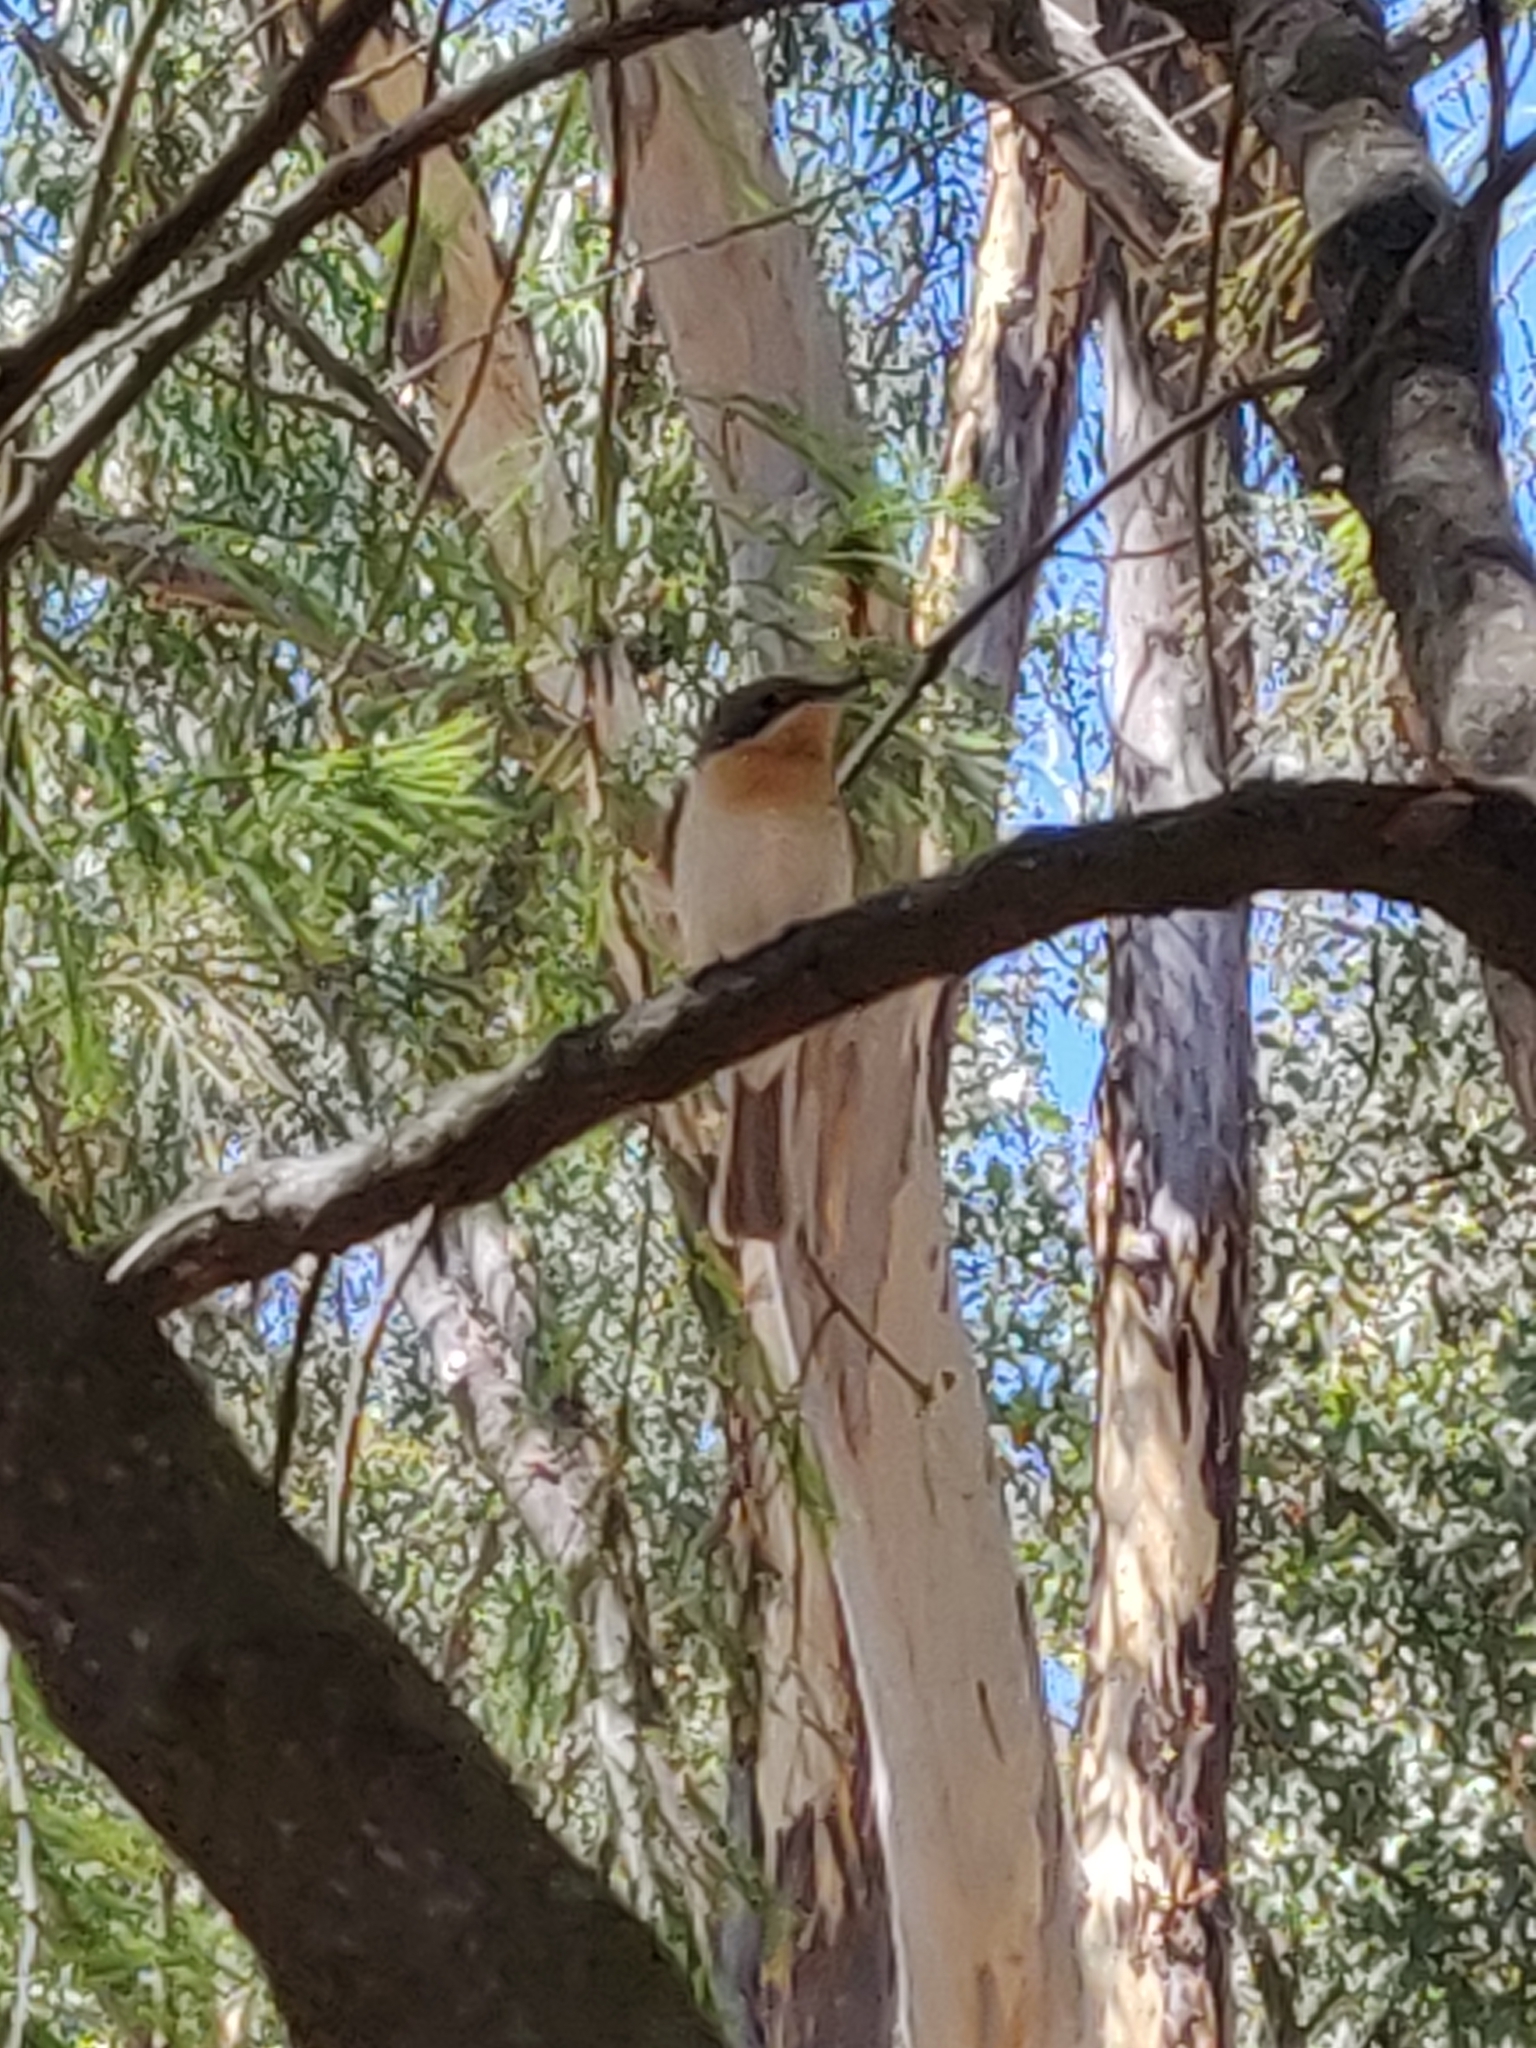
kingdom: Animalia
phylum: Chordata
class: Aves
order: Passeriformes
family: Monarchidae
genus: Myiagra
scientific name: Myiagra rubecula
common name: Leaden flycatcher
